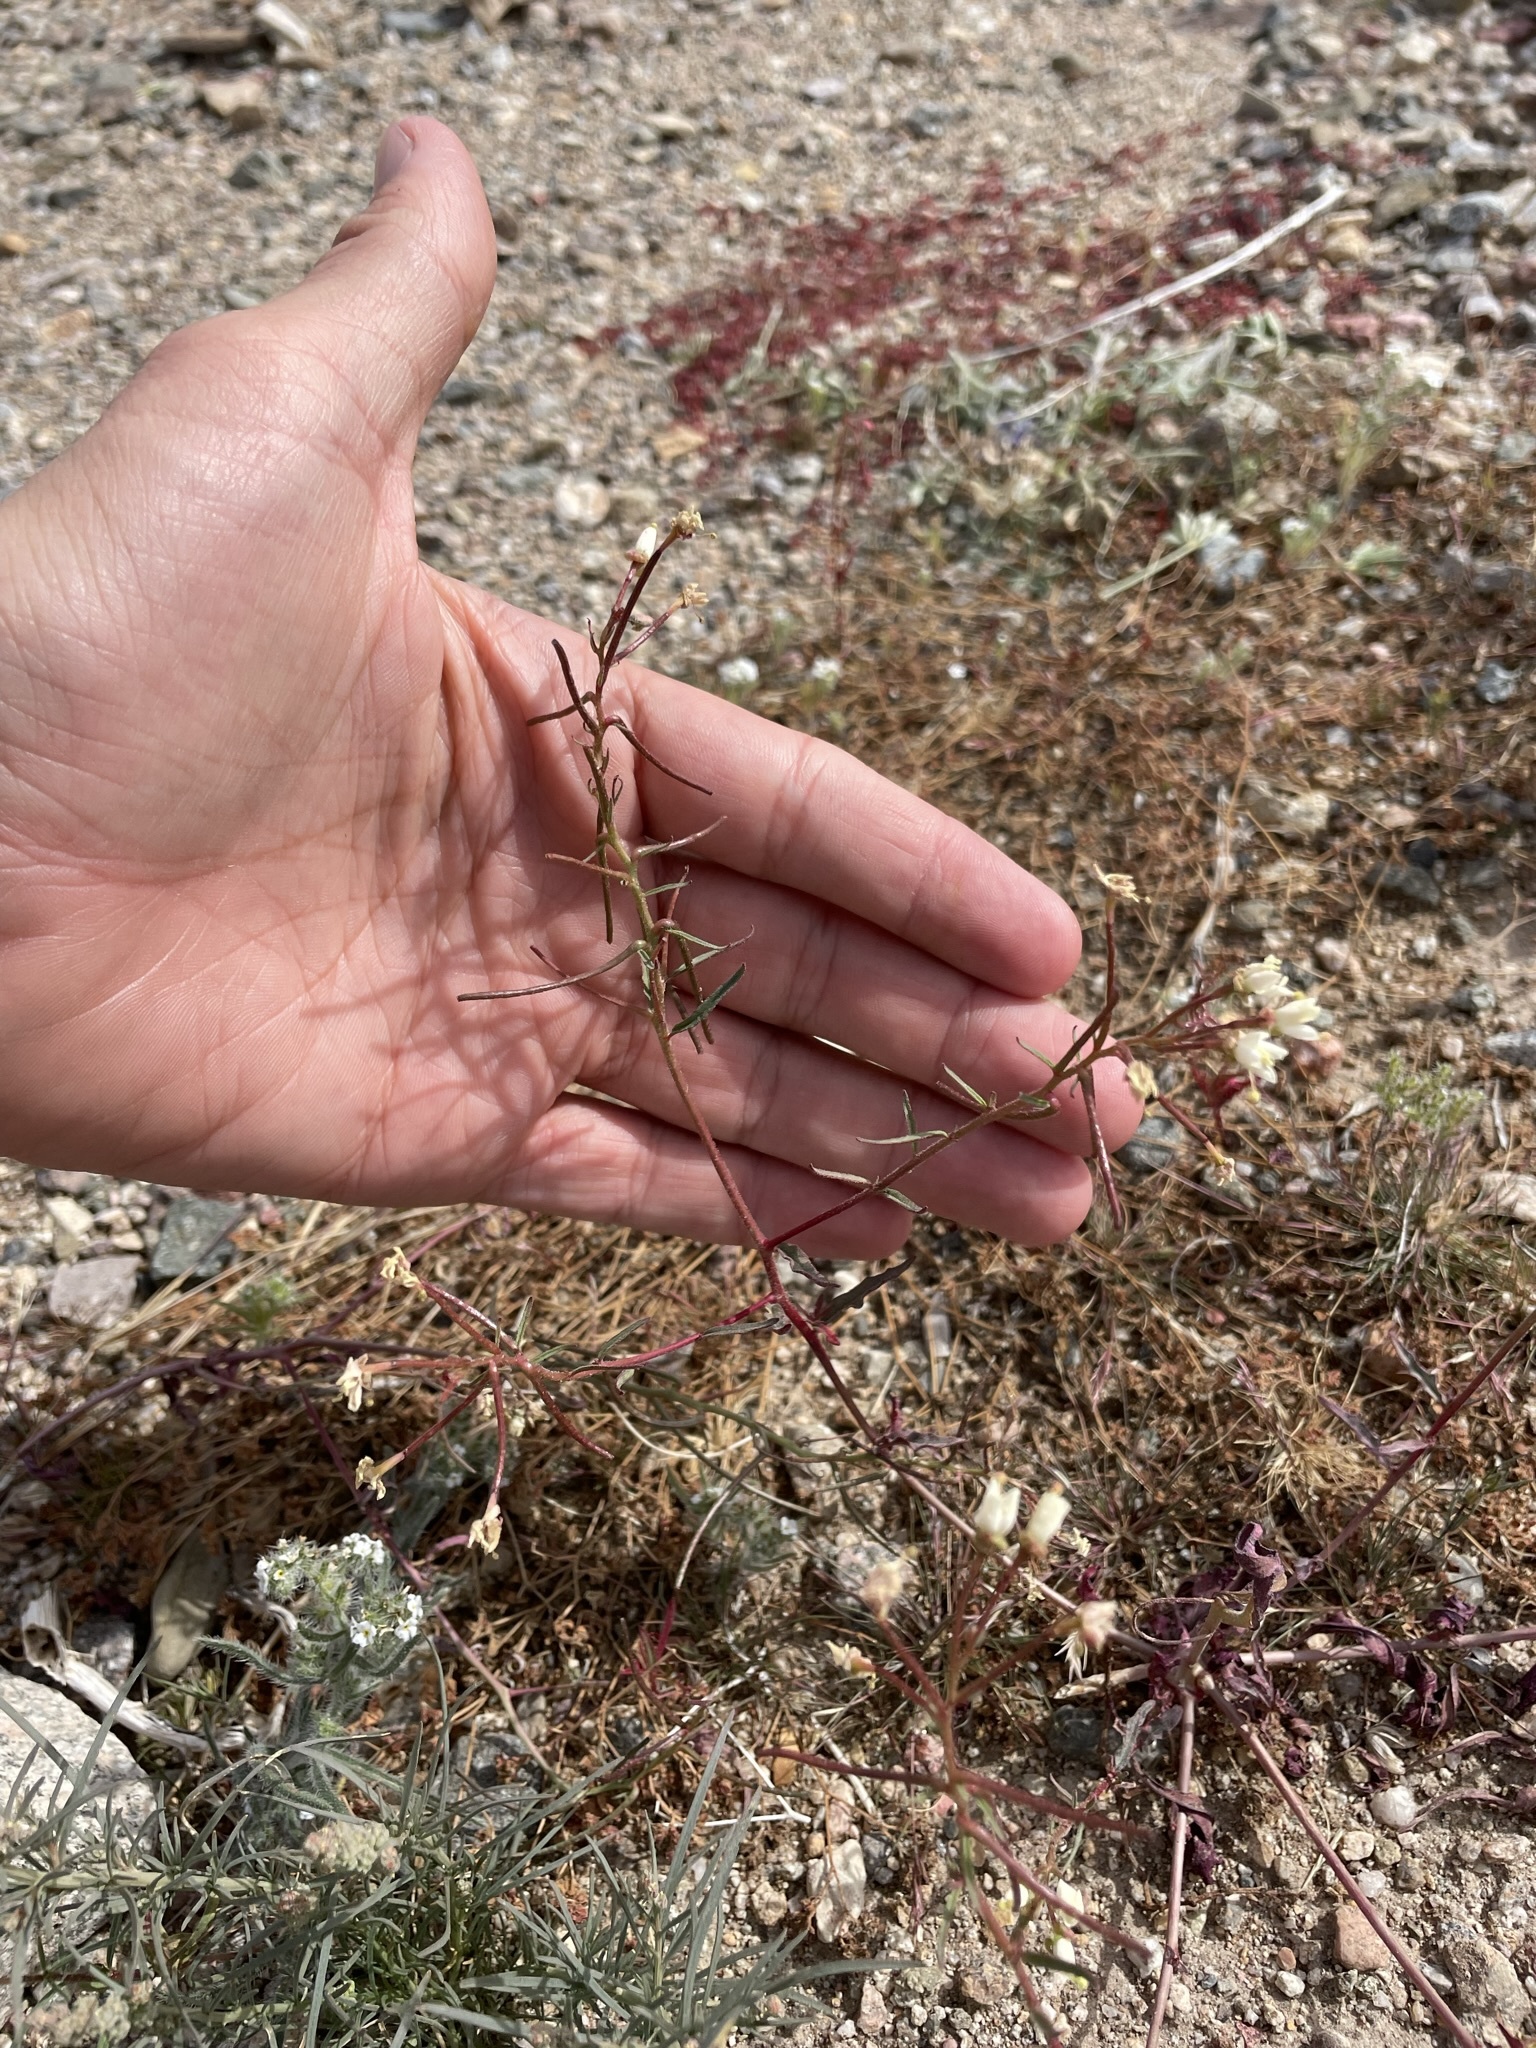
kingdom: Plantae
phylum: Tracheophyta
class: Magnoliopsida
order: Myrtales
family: Onagraceae
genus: Eremothera
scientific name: Eremothera refracta
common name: Narrowleaf suncup
